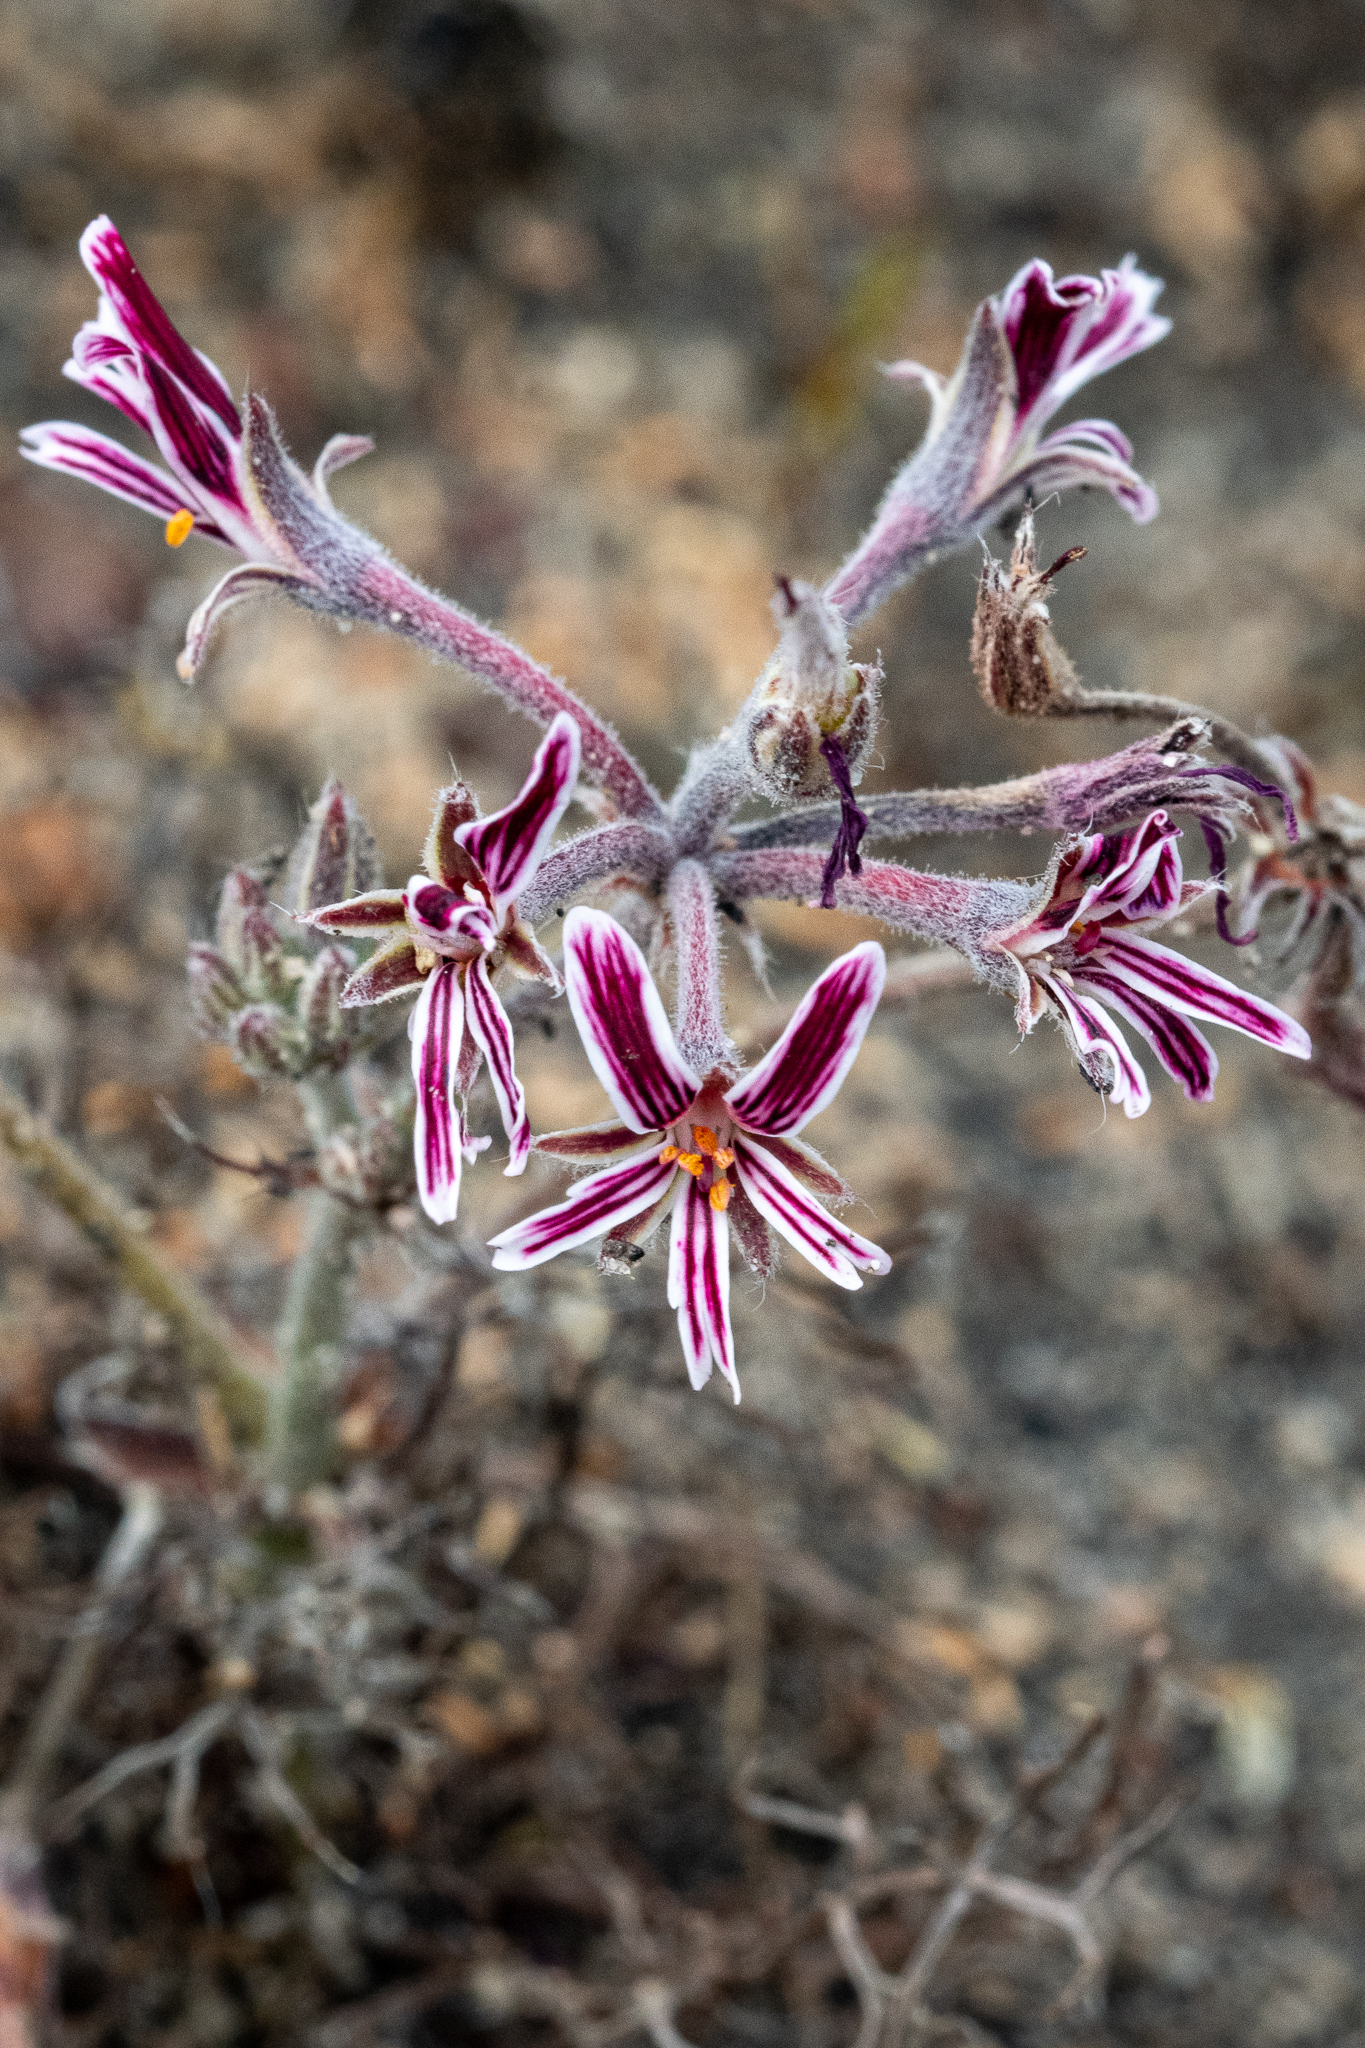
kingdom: Plantae
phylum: Tracheophyta
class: Magnoliopsida
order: Geraniales
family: Geraniaceae
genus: Pelargonium
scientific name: Pelargonium caledonicum
